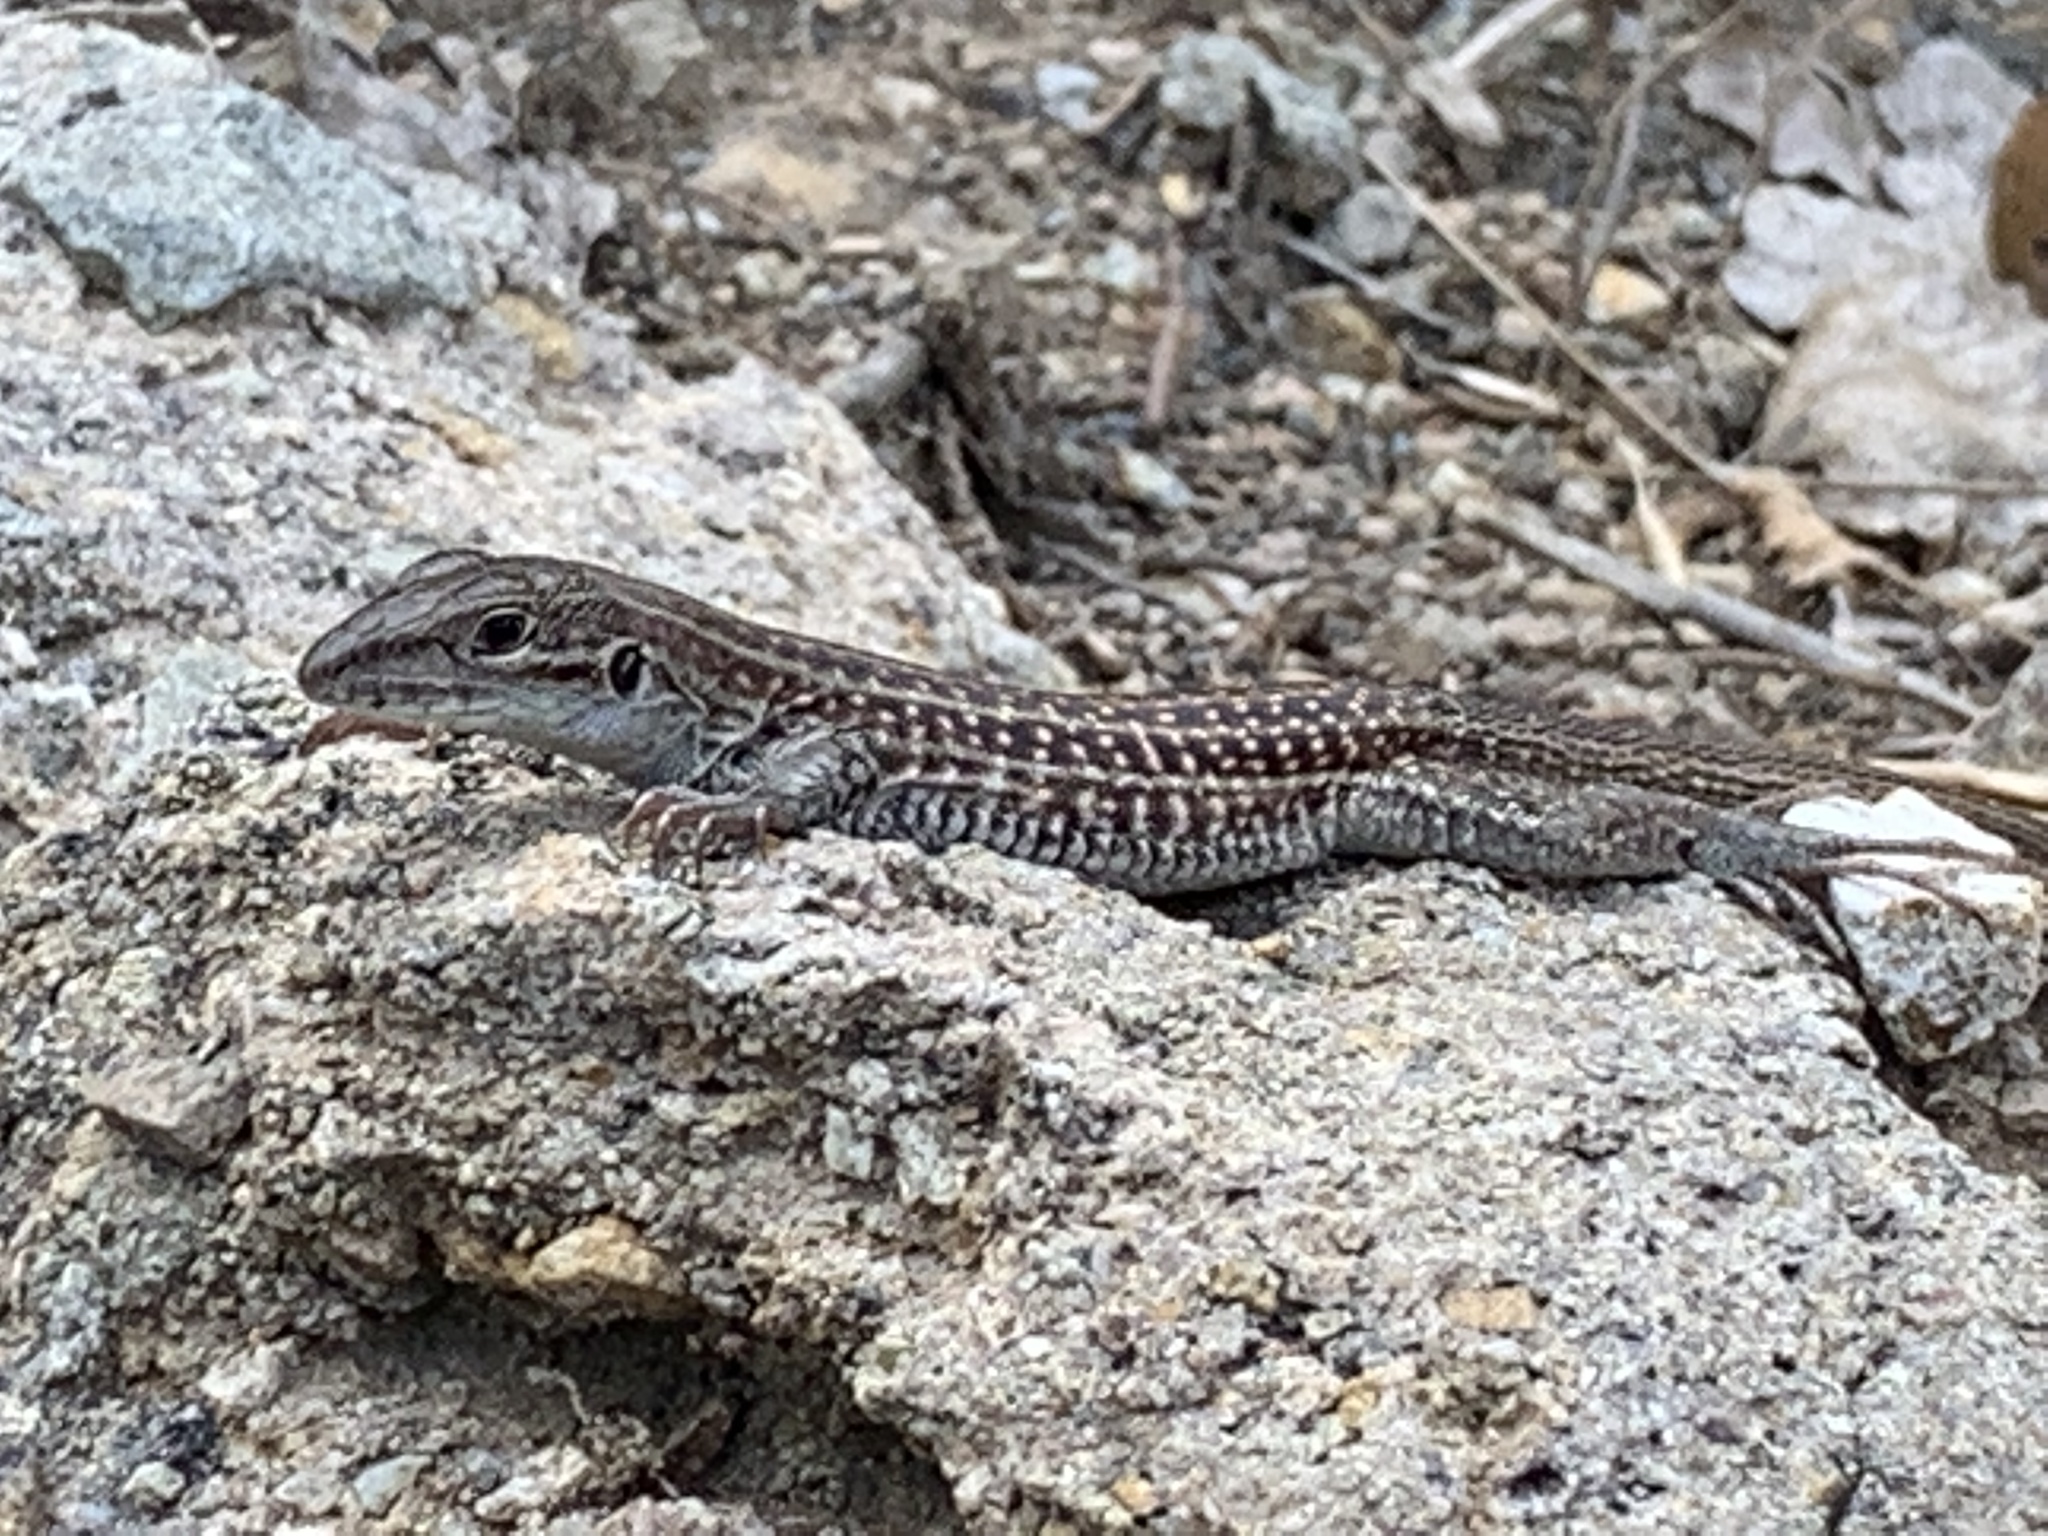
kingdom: Animalia
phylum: Chordata
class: Squamata
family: Teiidae
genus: Aspidoscelis
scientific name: Aspidoscelis exsanguis
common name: Chihuahuan spotted whiptail
